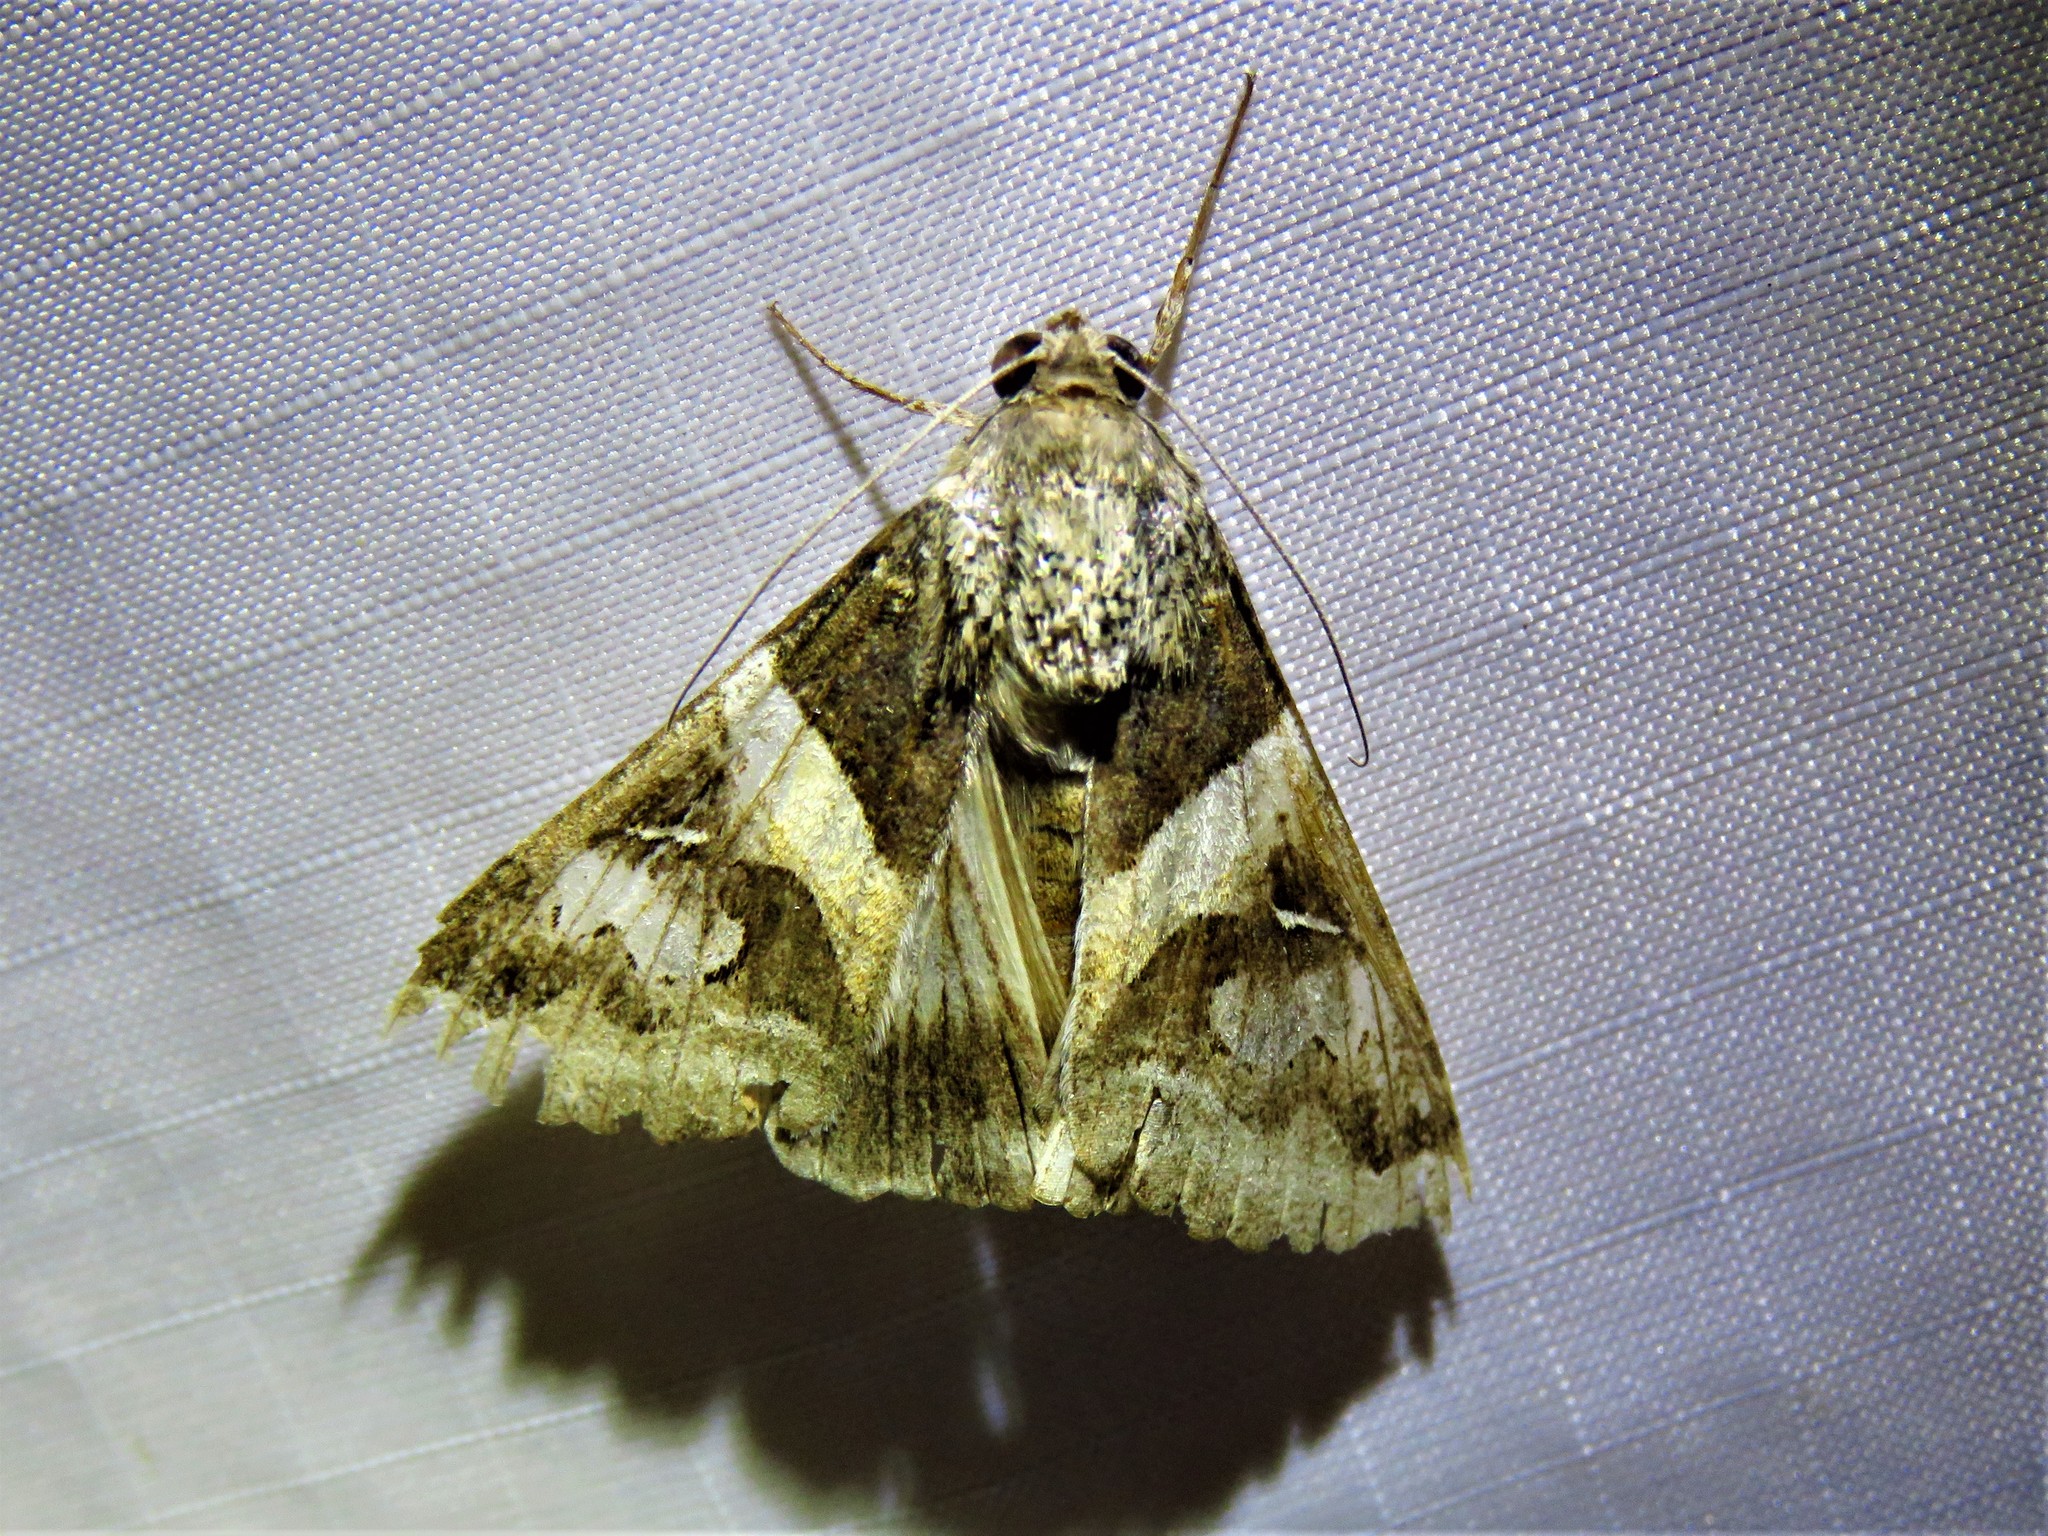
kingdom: Animalia
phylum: Arthropoda
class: Insecta
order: Lepidoptera
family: Erebidae
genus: Melipotis
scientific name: Melipotis indomita
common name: Moth
